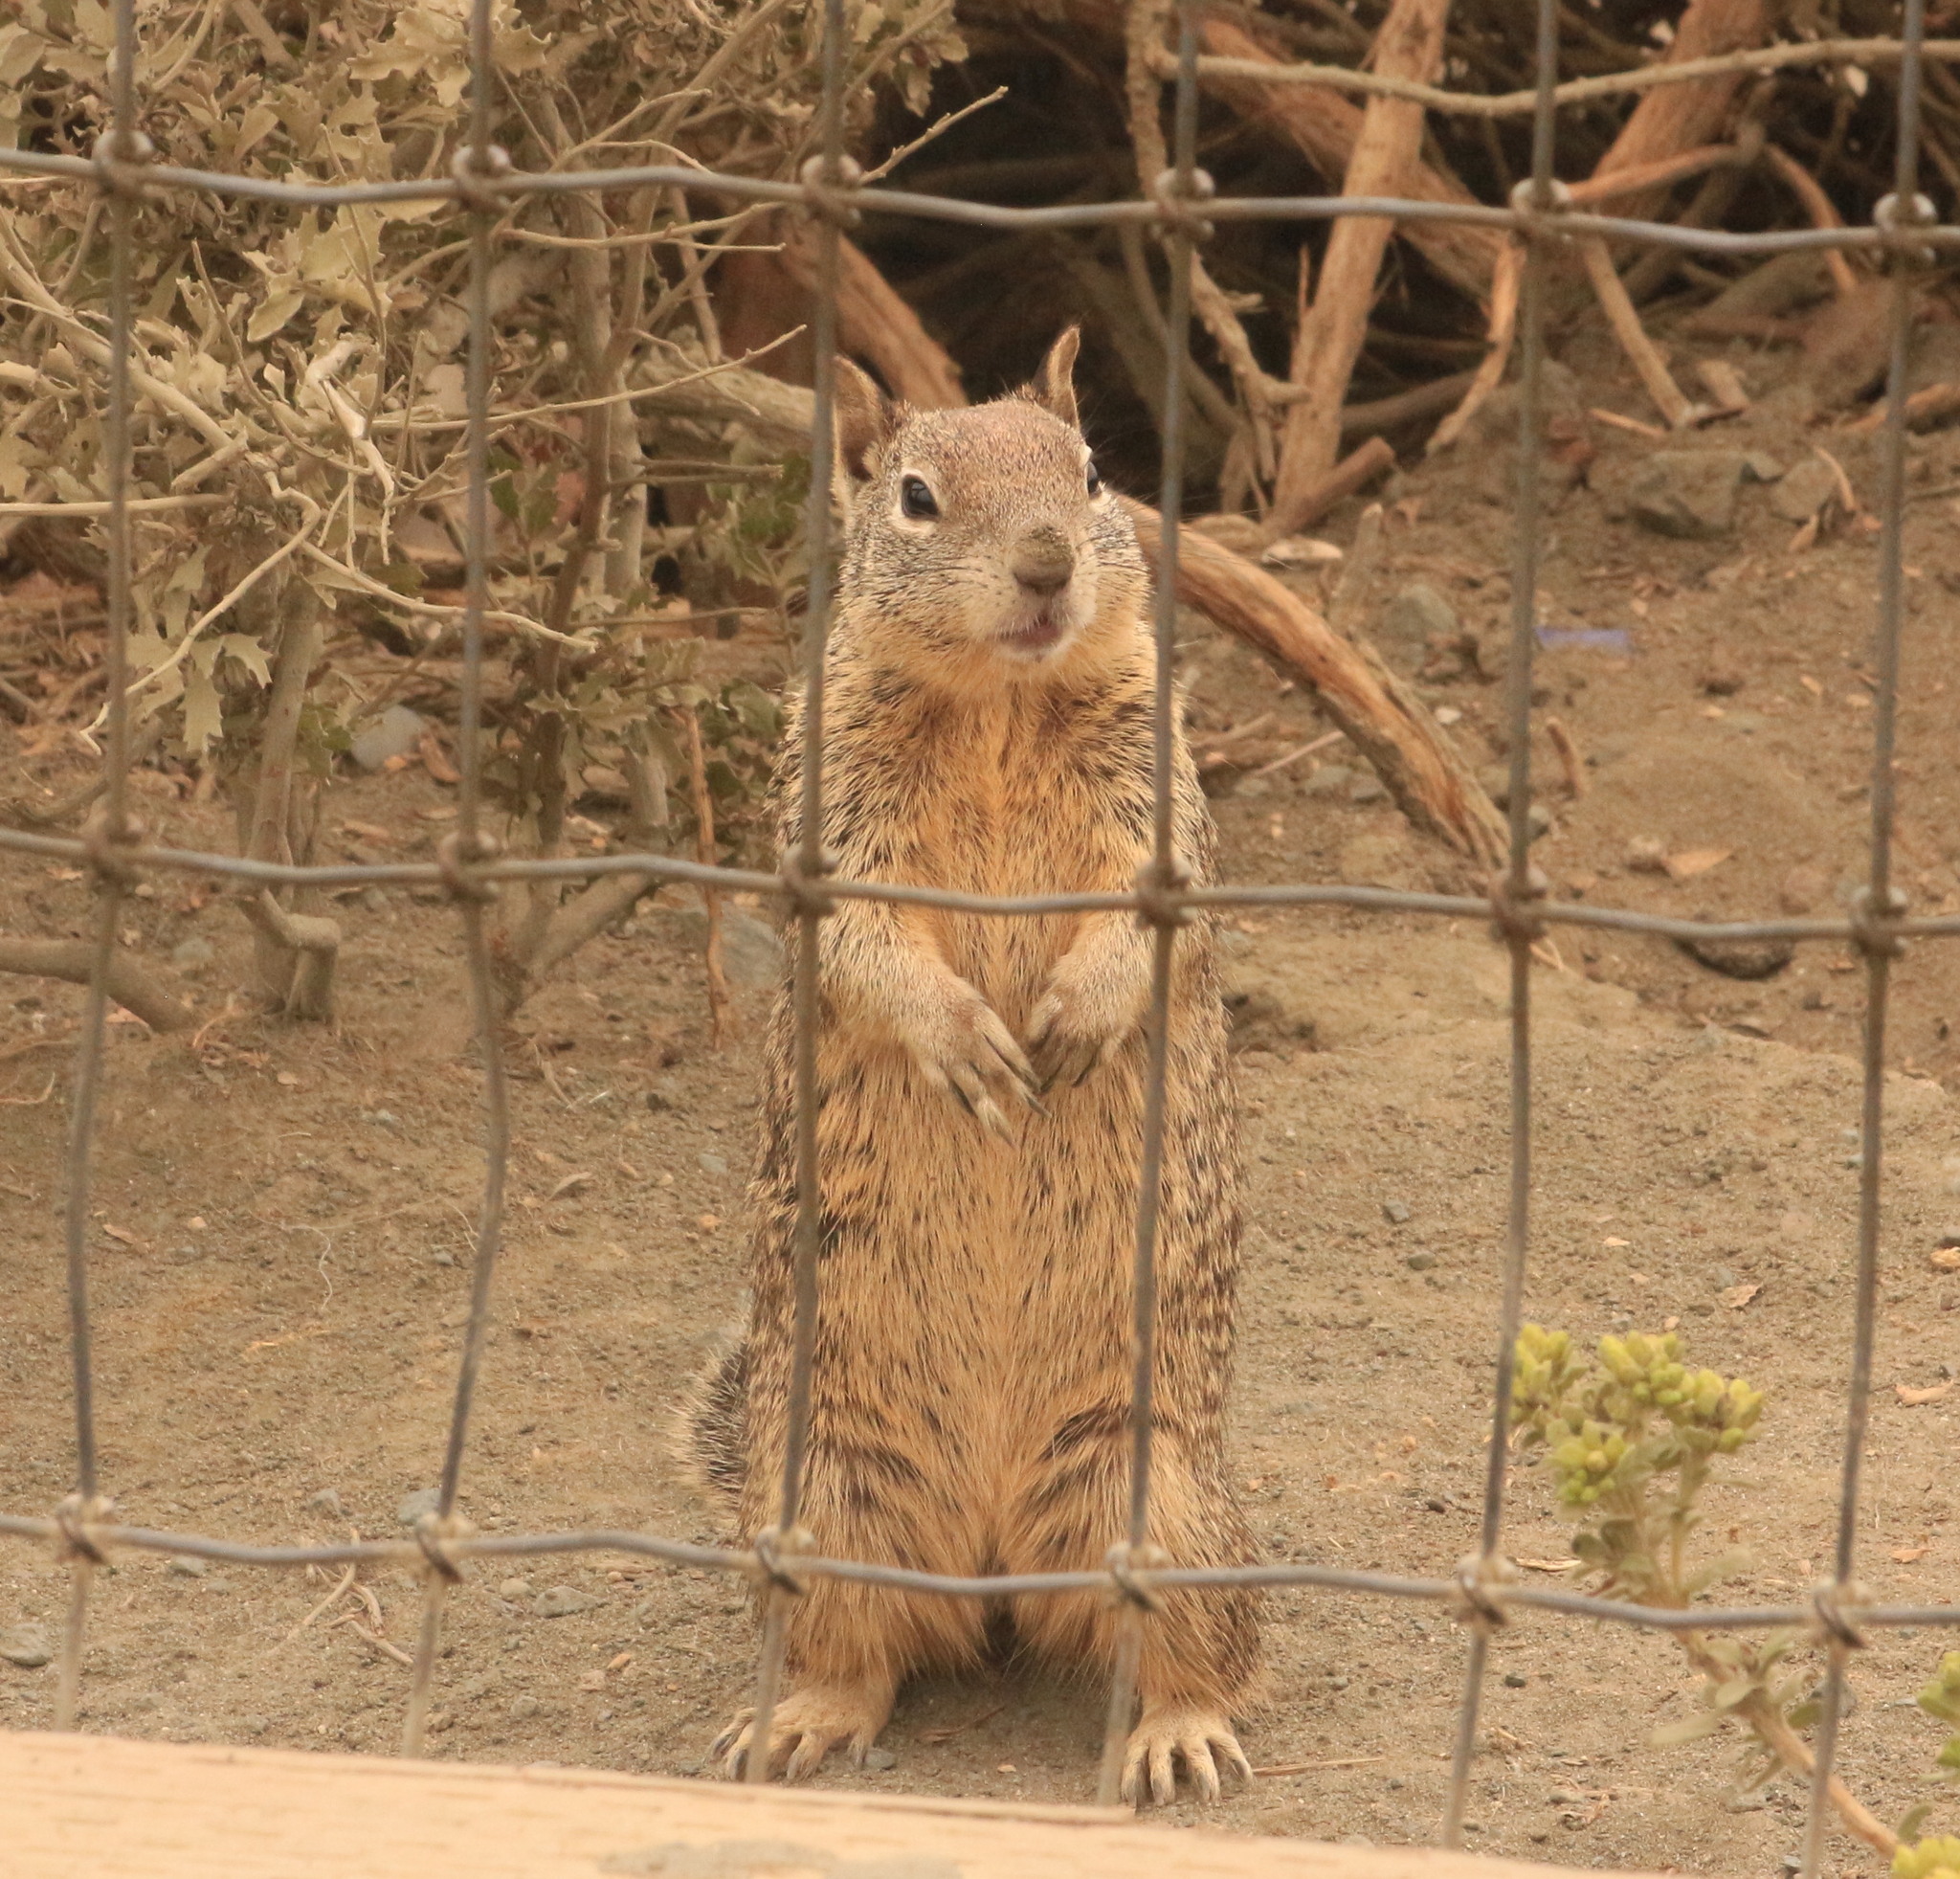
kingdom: Animalia
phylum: Chordata
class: Mammalia
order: Rodentia
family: Sciuridae
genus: Otospermophilus
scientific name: Otospermophilus beecheyi
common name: California ground squirrel
